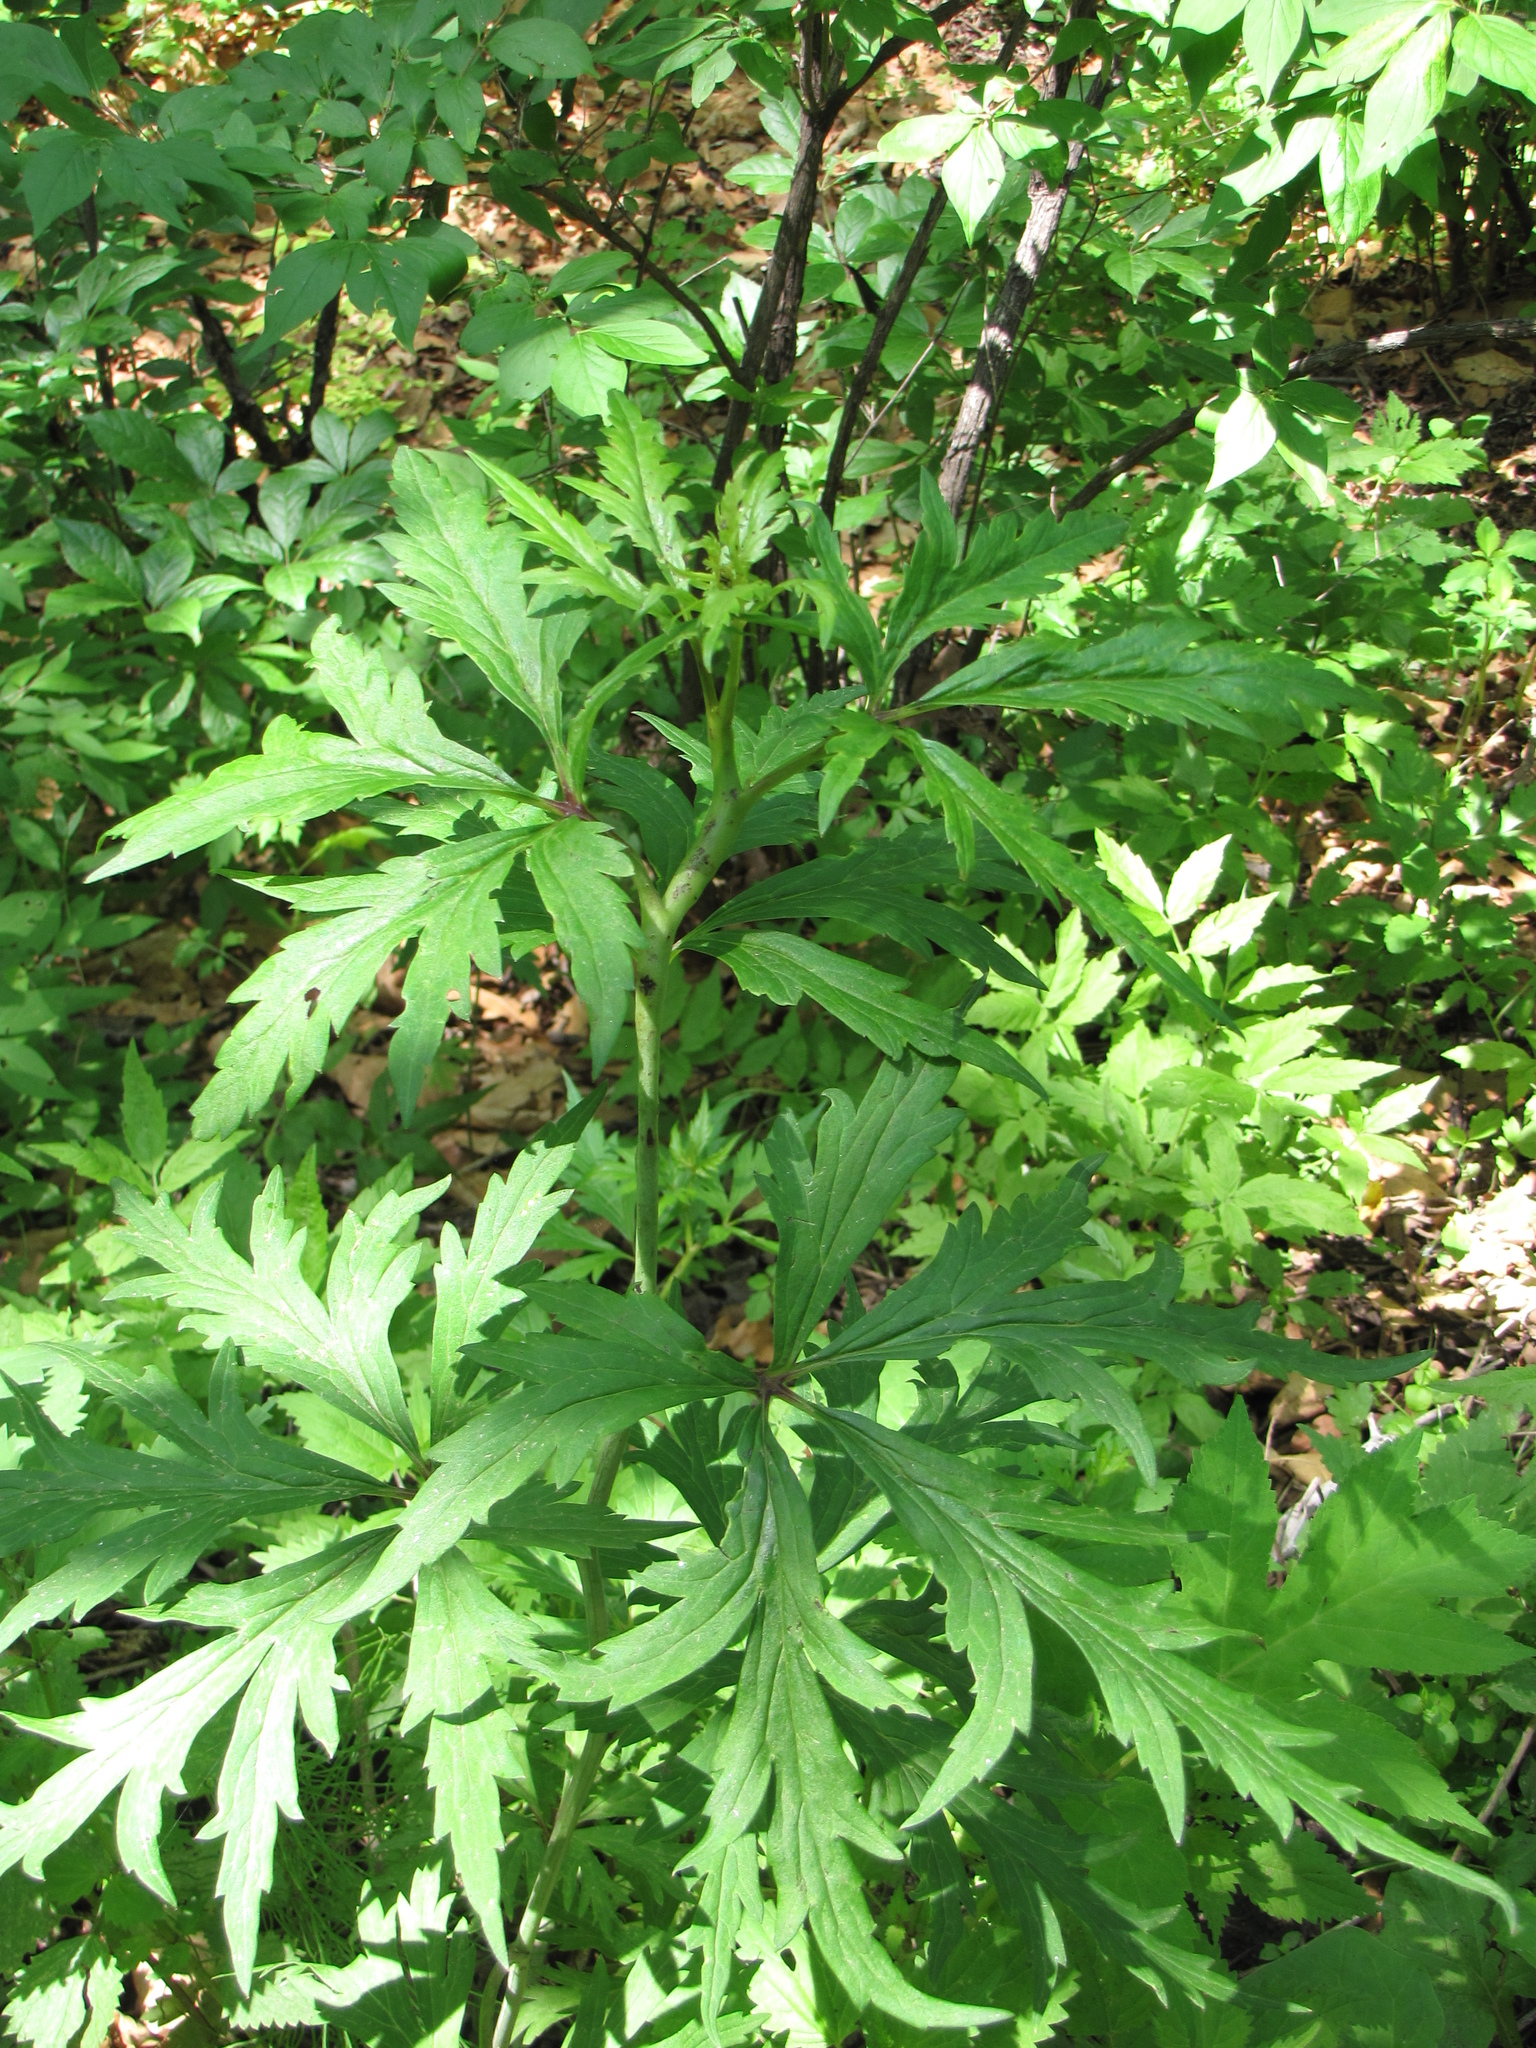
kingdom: Plantae
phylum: Tracheophyta
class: Magnoliopsida
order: Ranunculales
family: Ranunculaceae
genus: Aconitum
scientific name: Aconitum kusnezoffii
